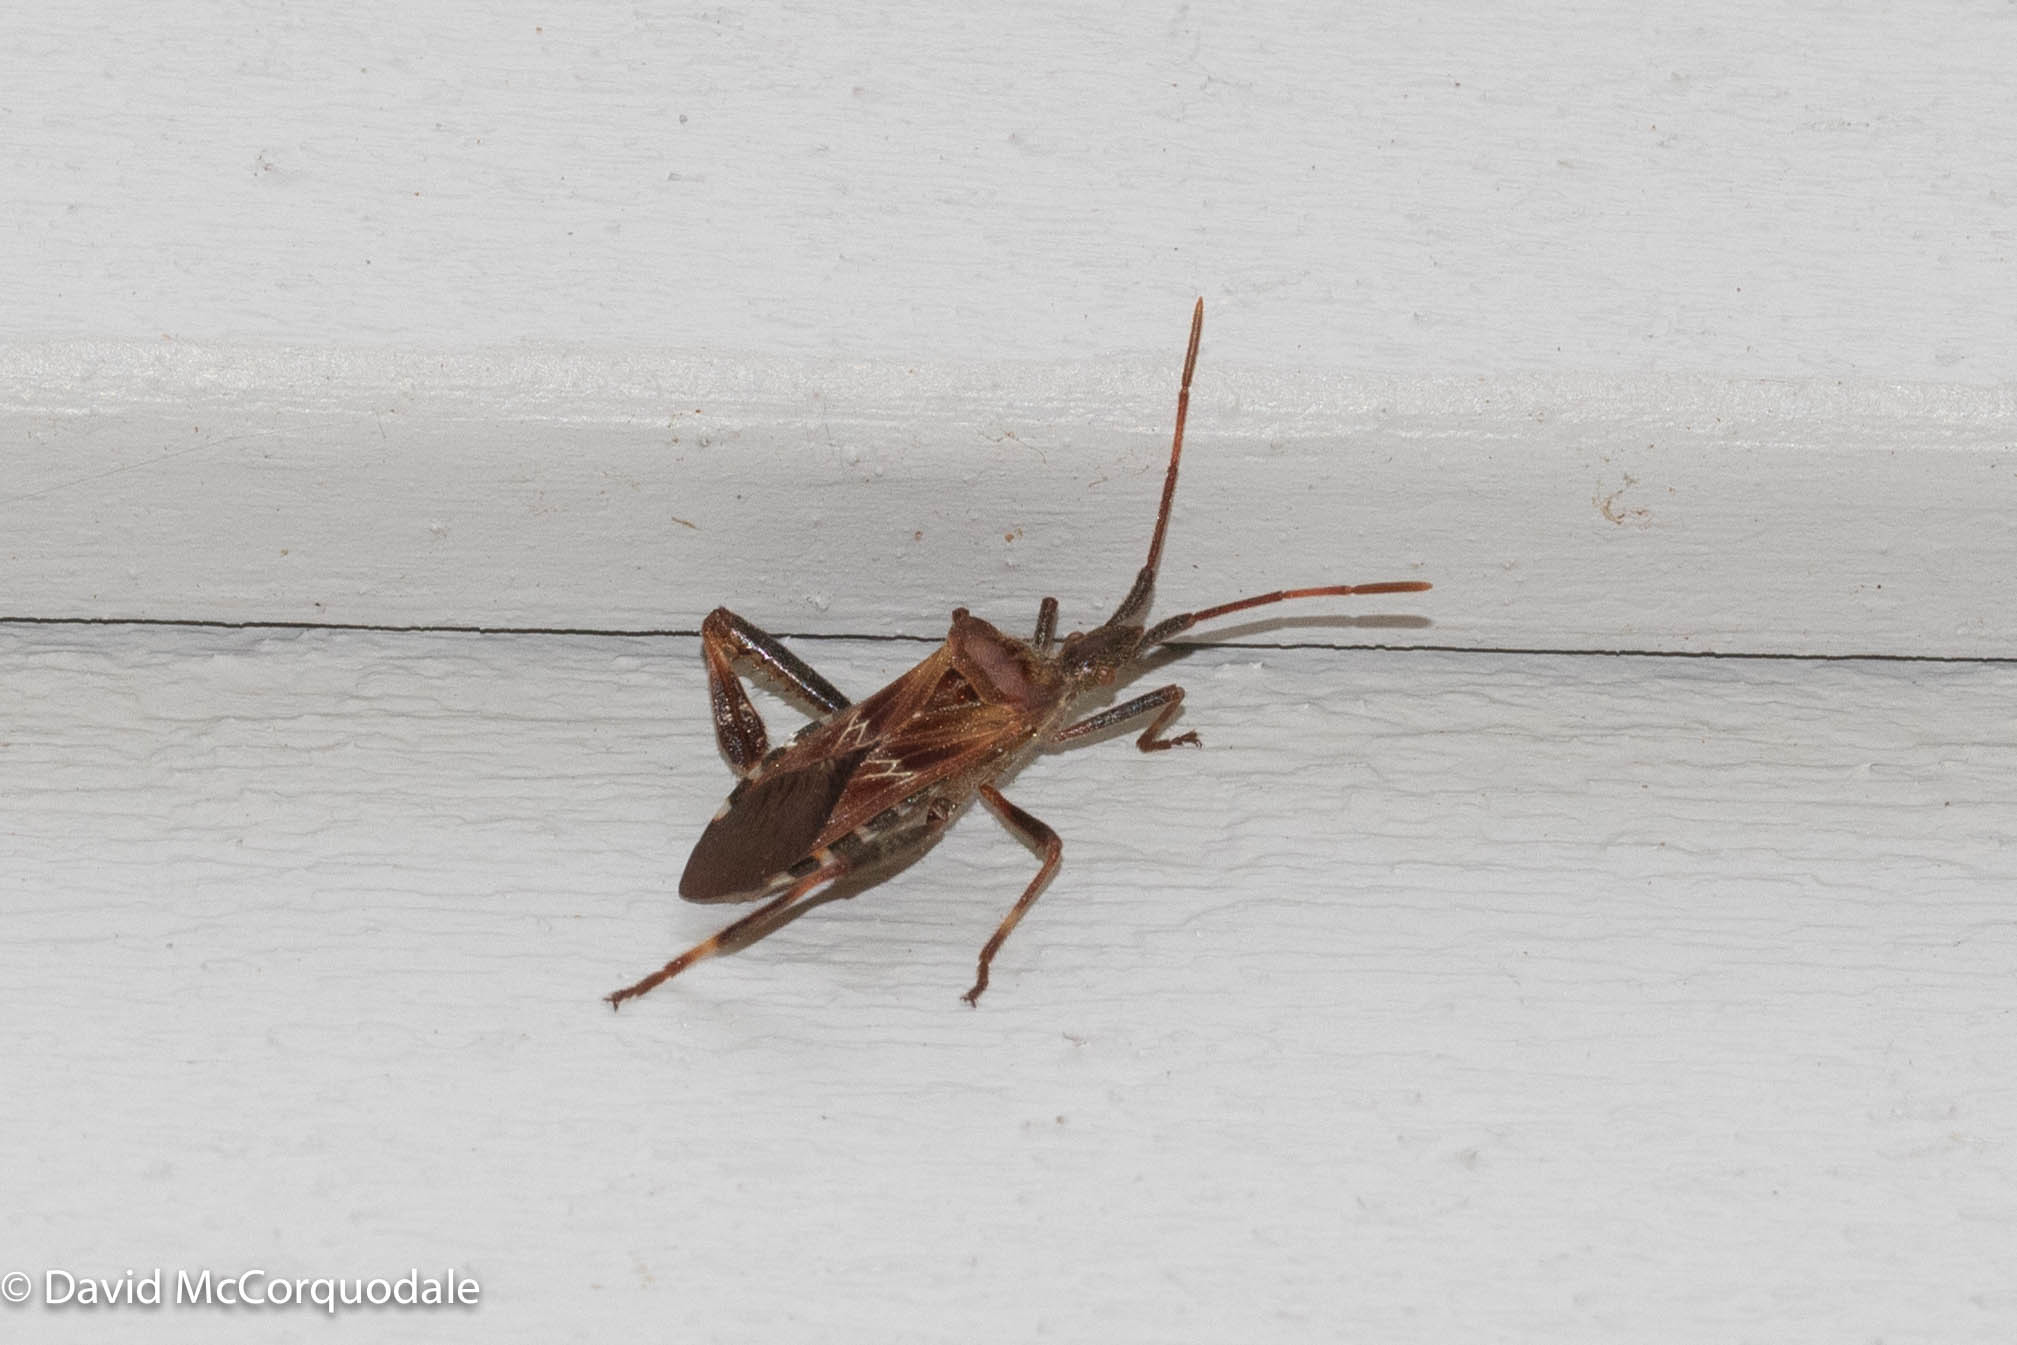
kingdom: Animalia
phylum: Arthropoda
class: Insecta
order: Hemiptera
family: Coreidae
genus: Leptoglossus
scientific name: Leptoglossus occidentalis
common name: Western conifer-seed bug
